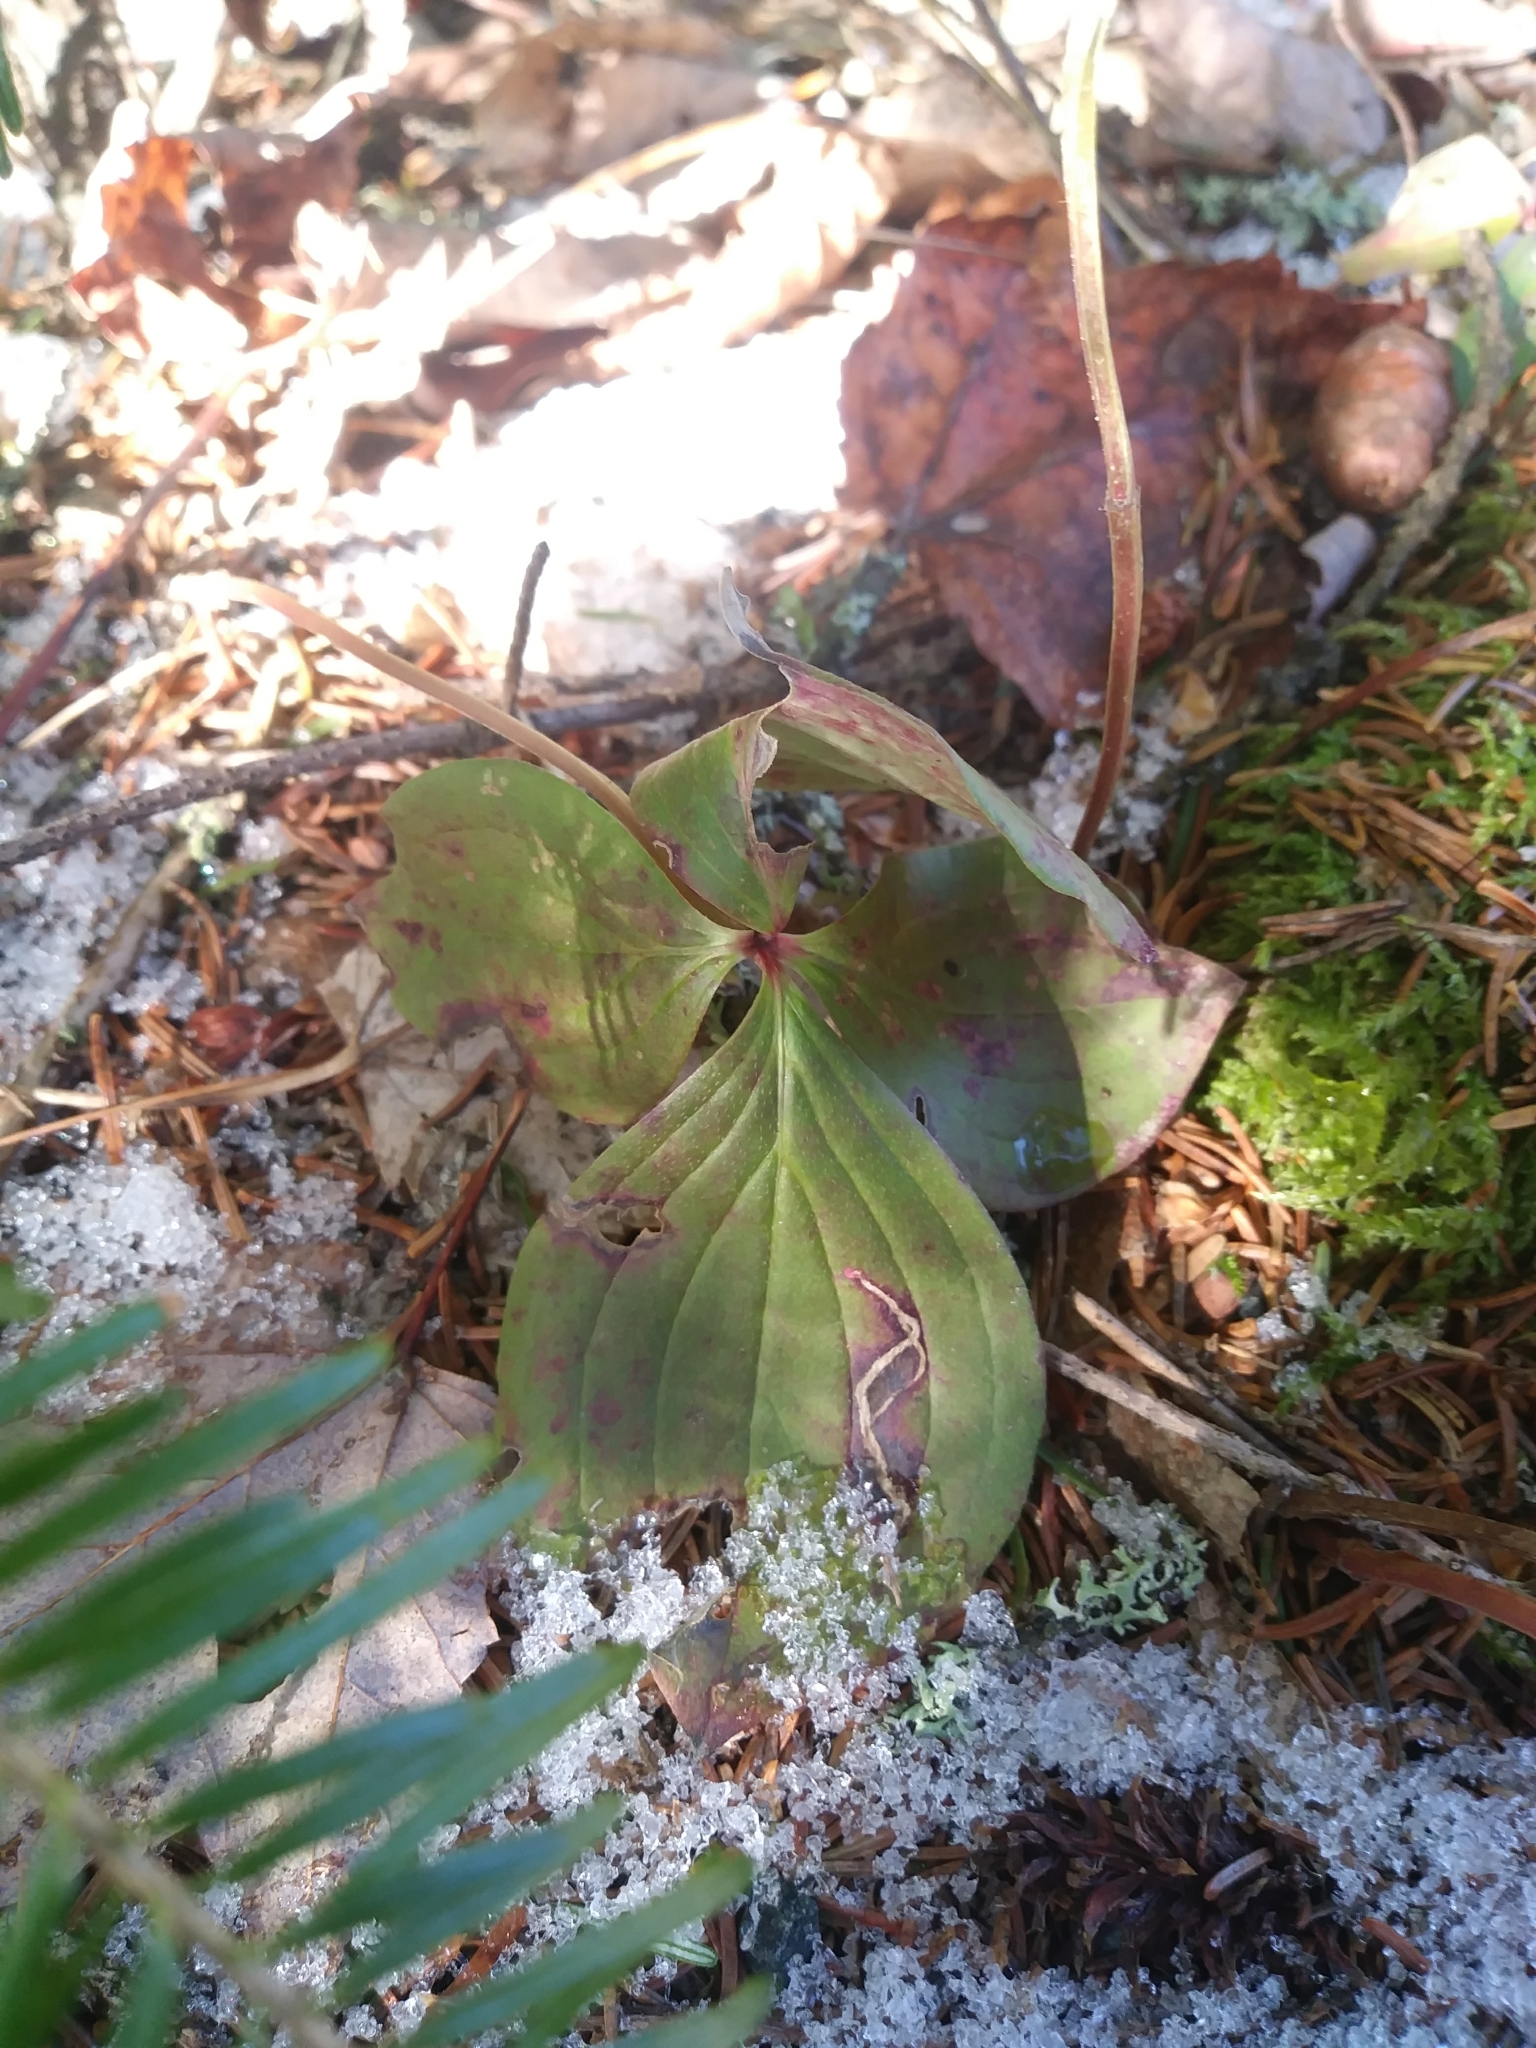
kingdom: Plantae
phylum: Tracheophyta
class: Magnoliopsida
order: Cornales
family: Cornaceae
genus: Cornus
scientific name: Cornus canadensis
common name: Creeping dogwood
